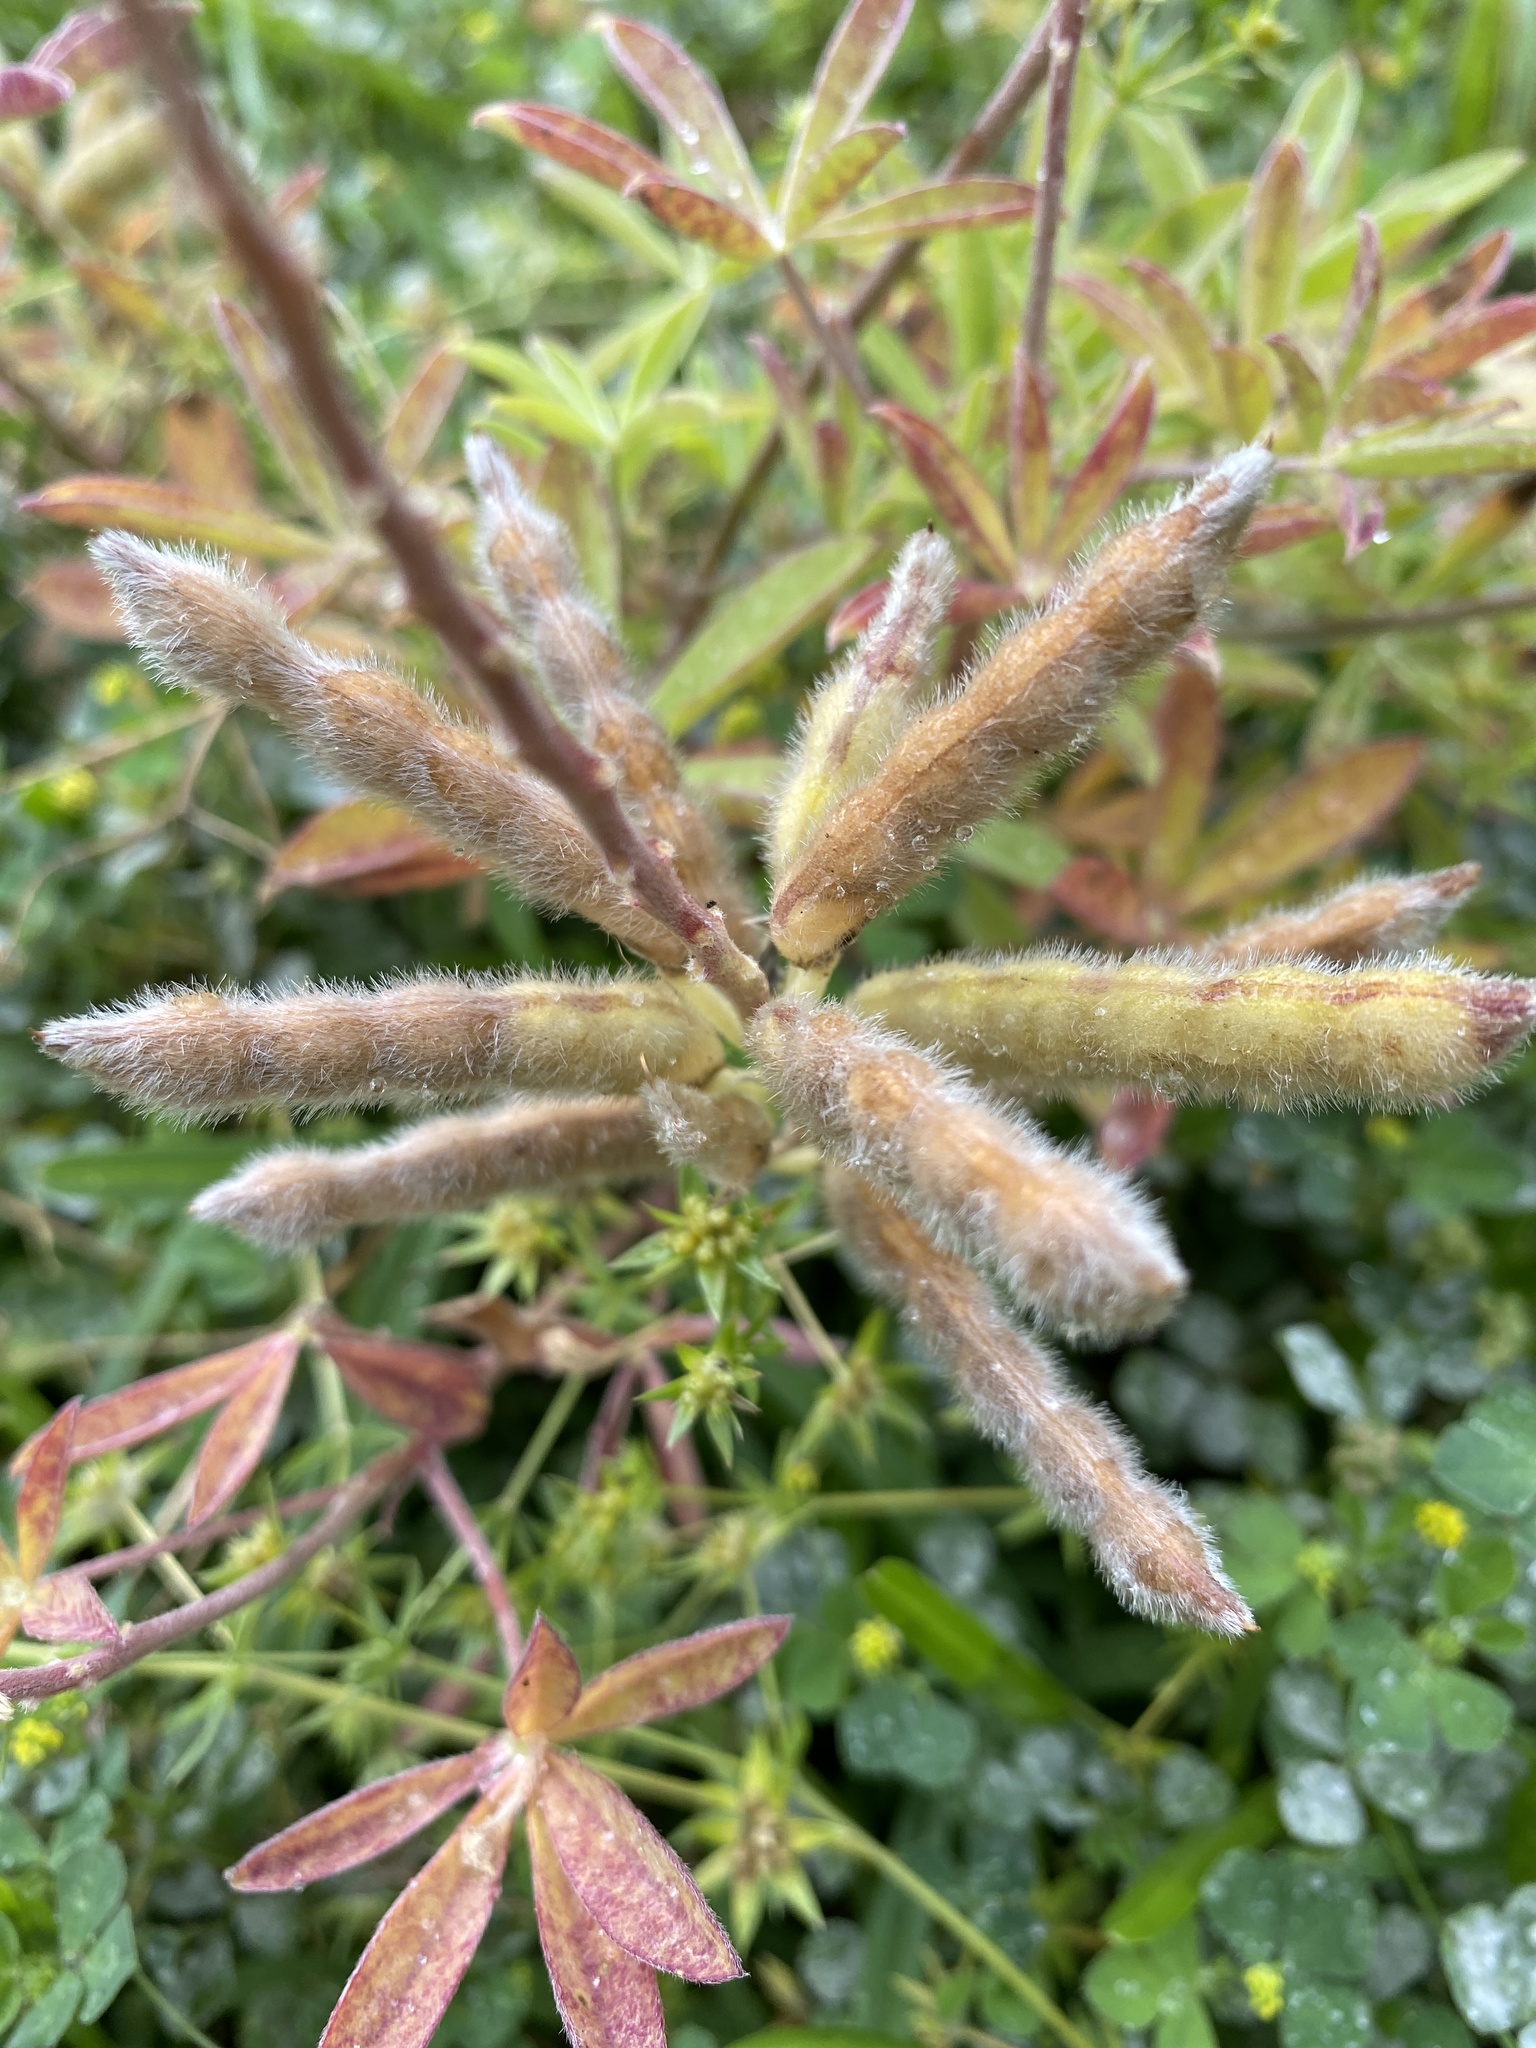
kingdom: Plantae
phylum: Tracheophyta
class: Magnoliopsida
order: Fabales
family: Fabaceae
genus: Lupinus
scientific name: Lupinus texensis
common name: Texas bluebonnet
